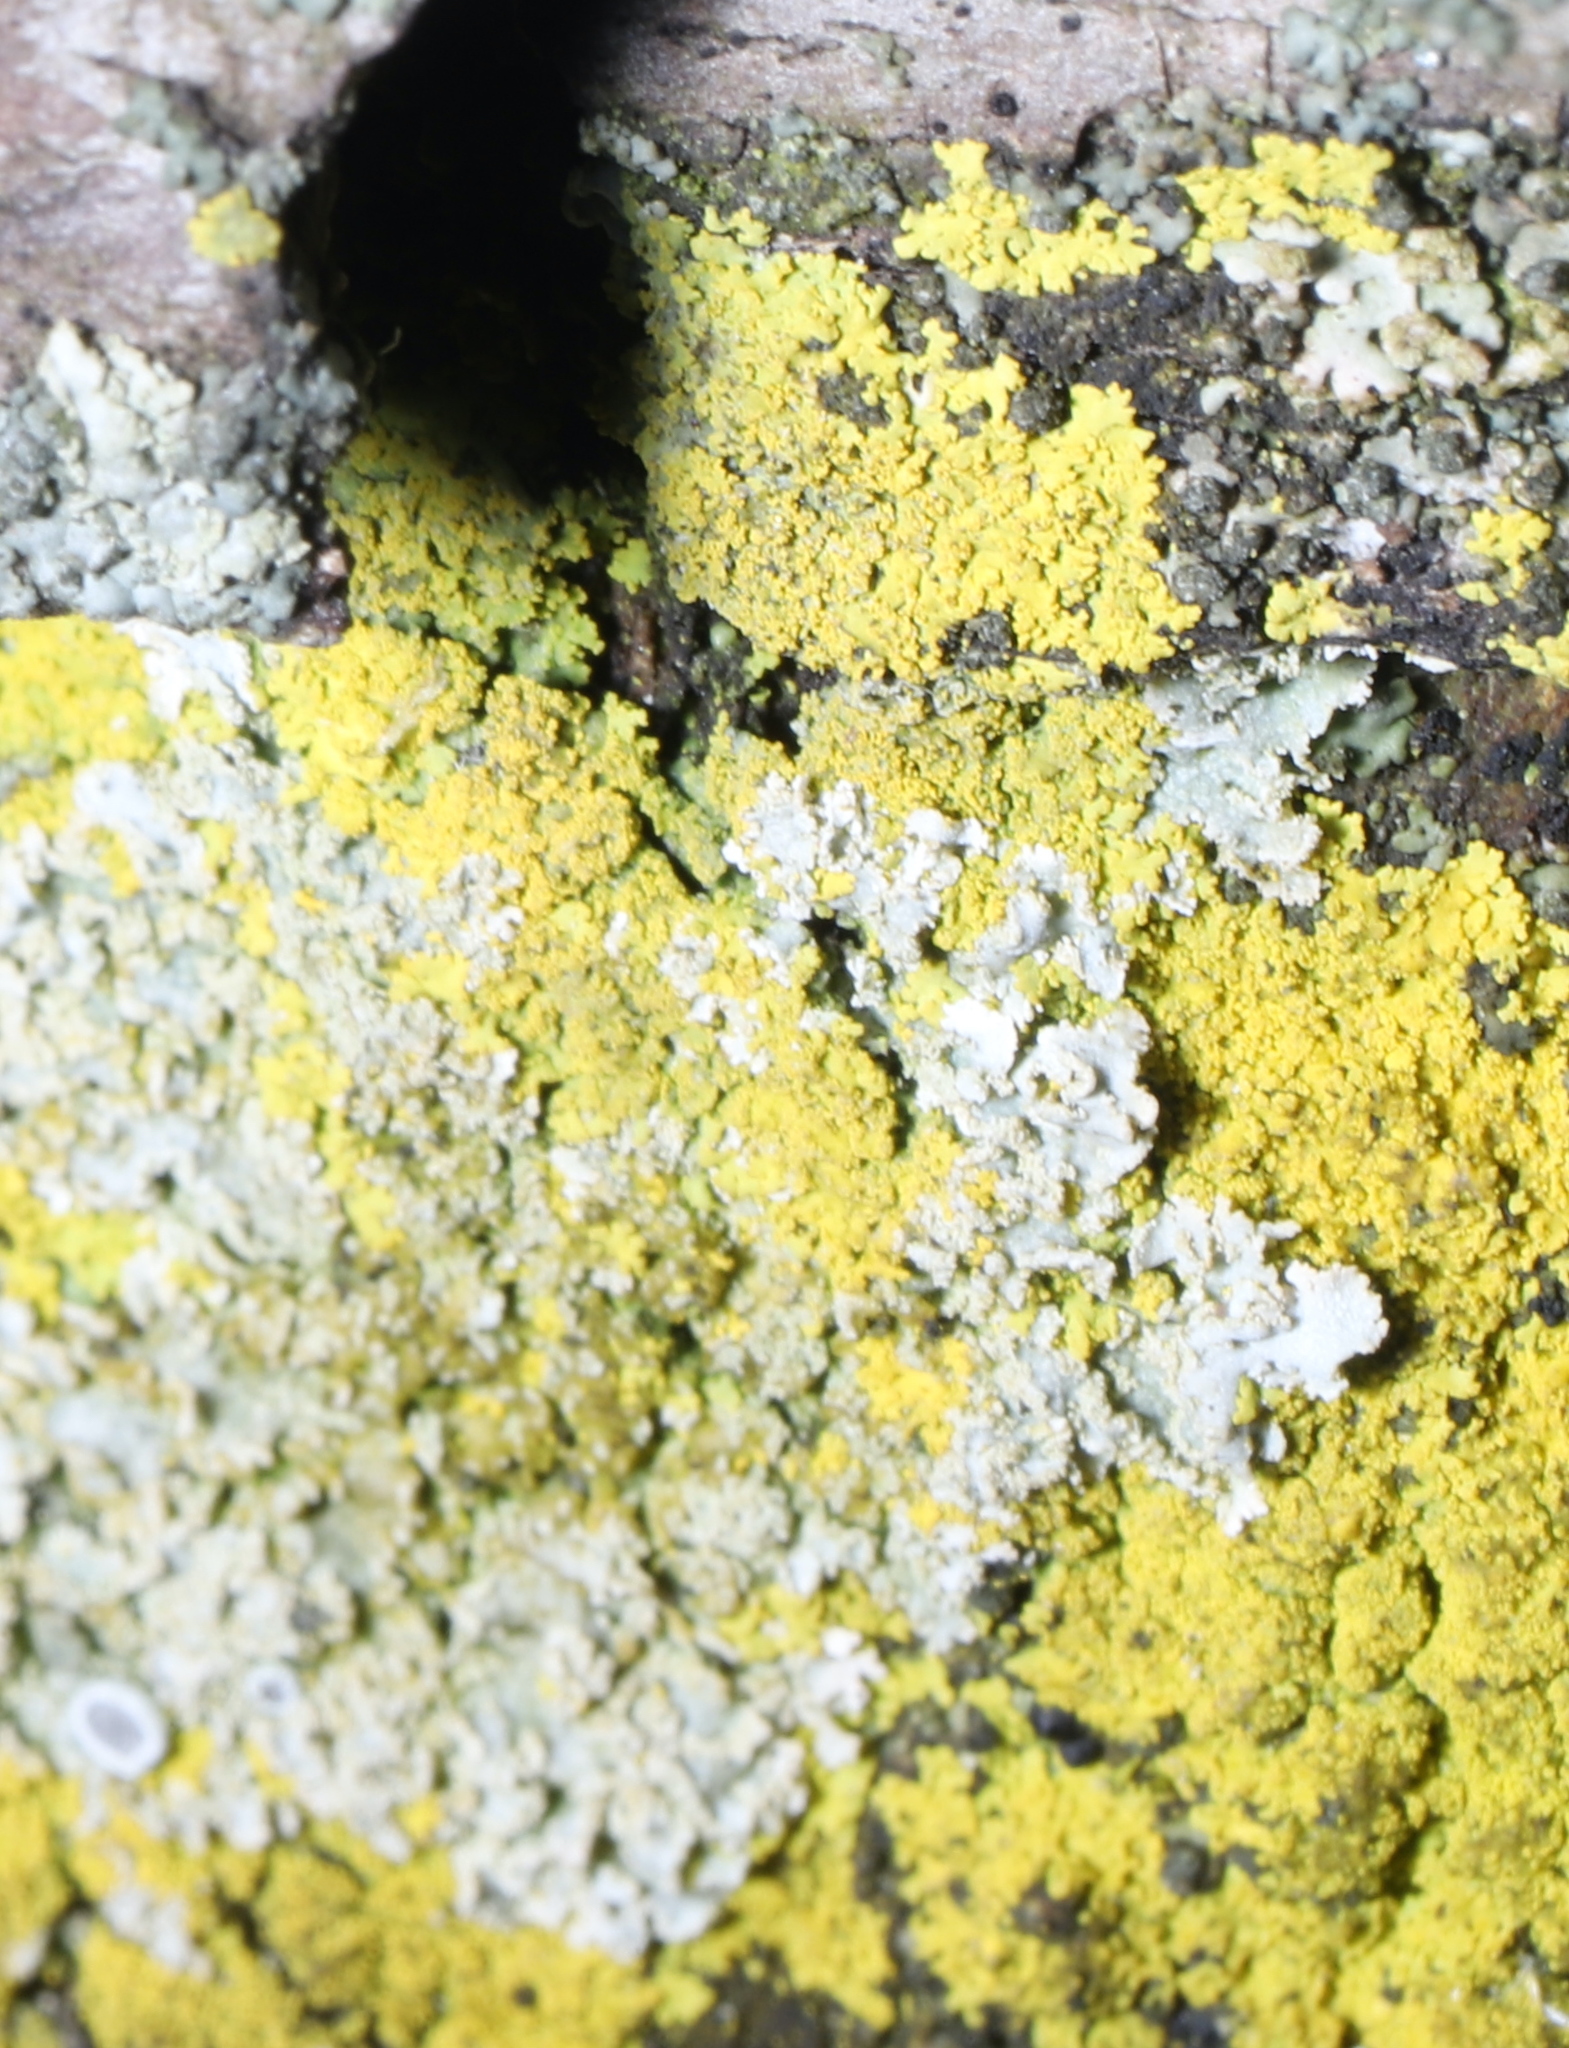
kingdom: Fungi
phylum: Ascomycota
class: Candelariomycetes
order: Candelariales
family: Candelariaceae
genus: Candelaria
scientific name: Candelaria concolor
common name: Candleflame lichen
